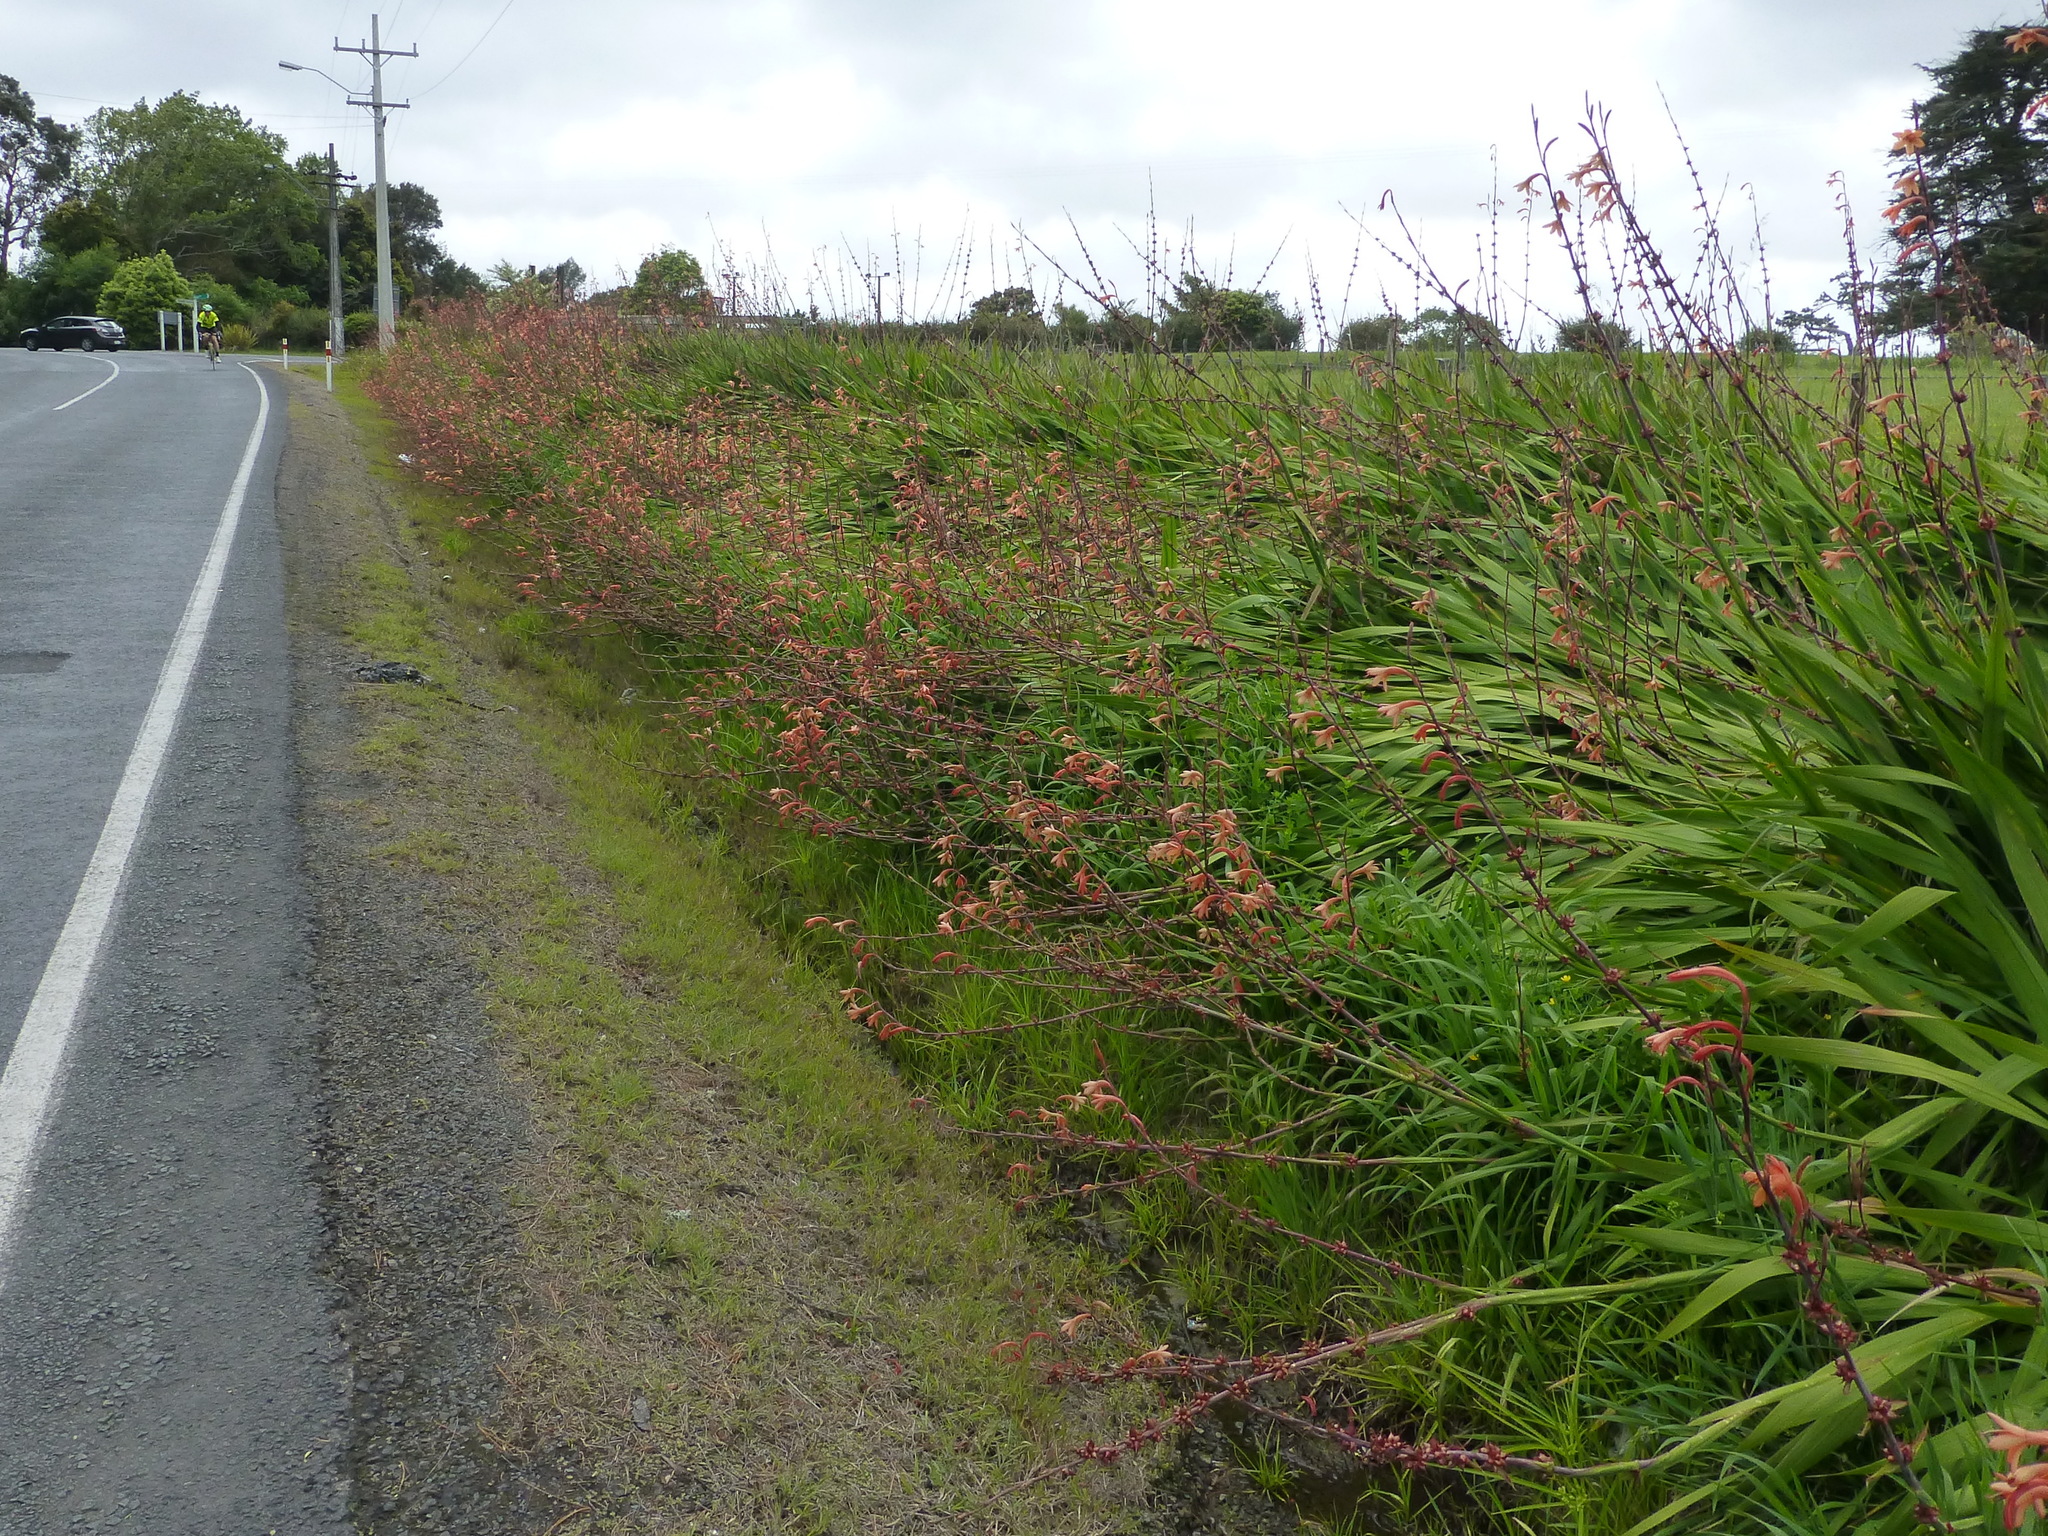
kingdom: Plantae
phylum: Tracheophyta
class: Liliopsida
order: Asparagales
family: Iridaceae
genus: Watsonia
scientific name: Watsonia meriana
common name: Bulbil bugle-lily
